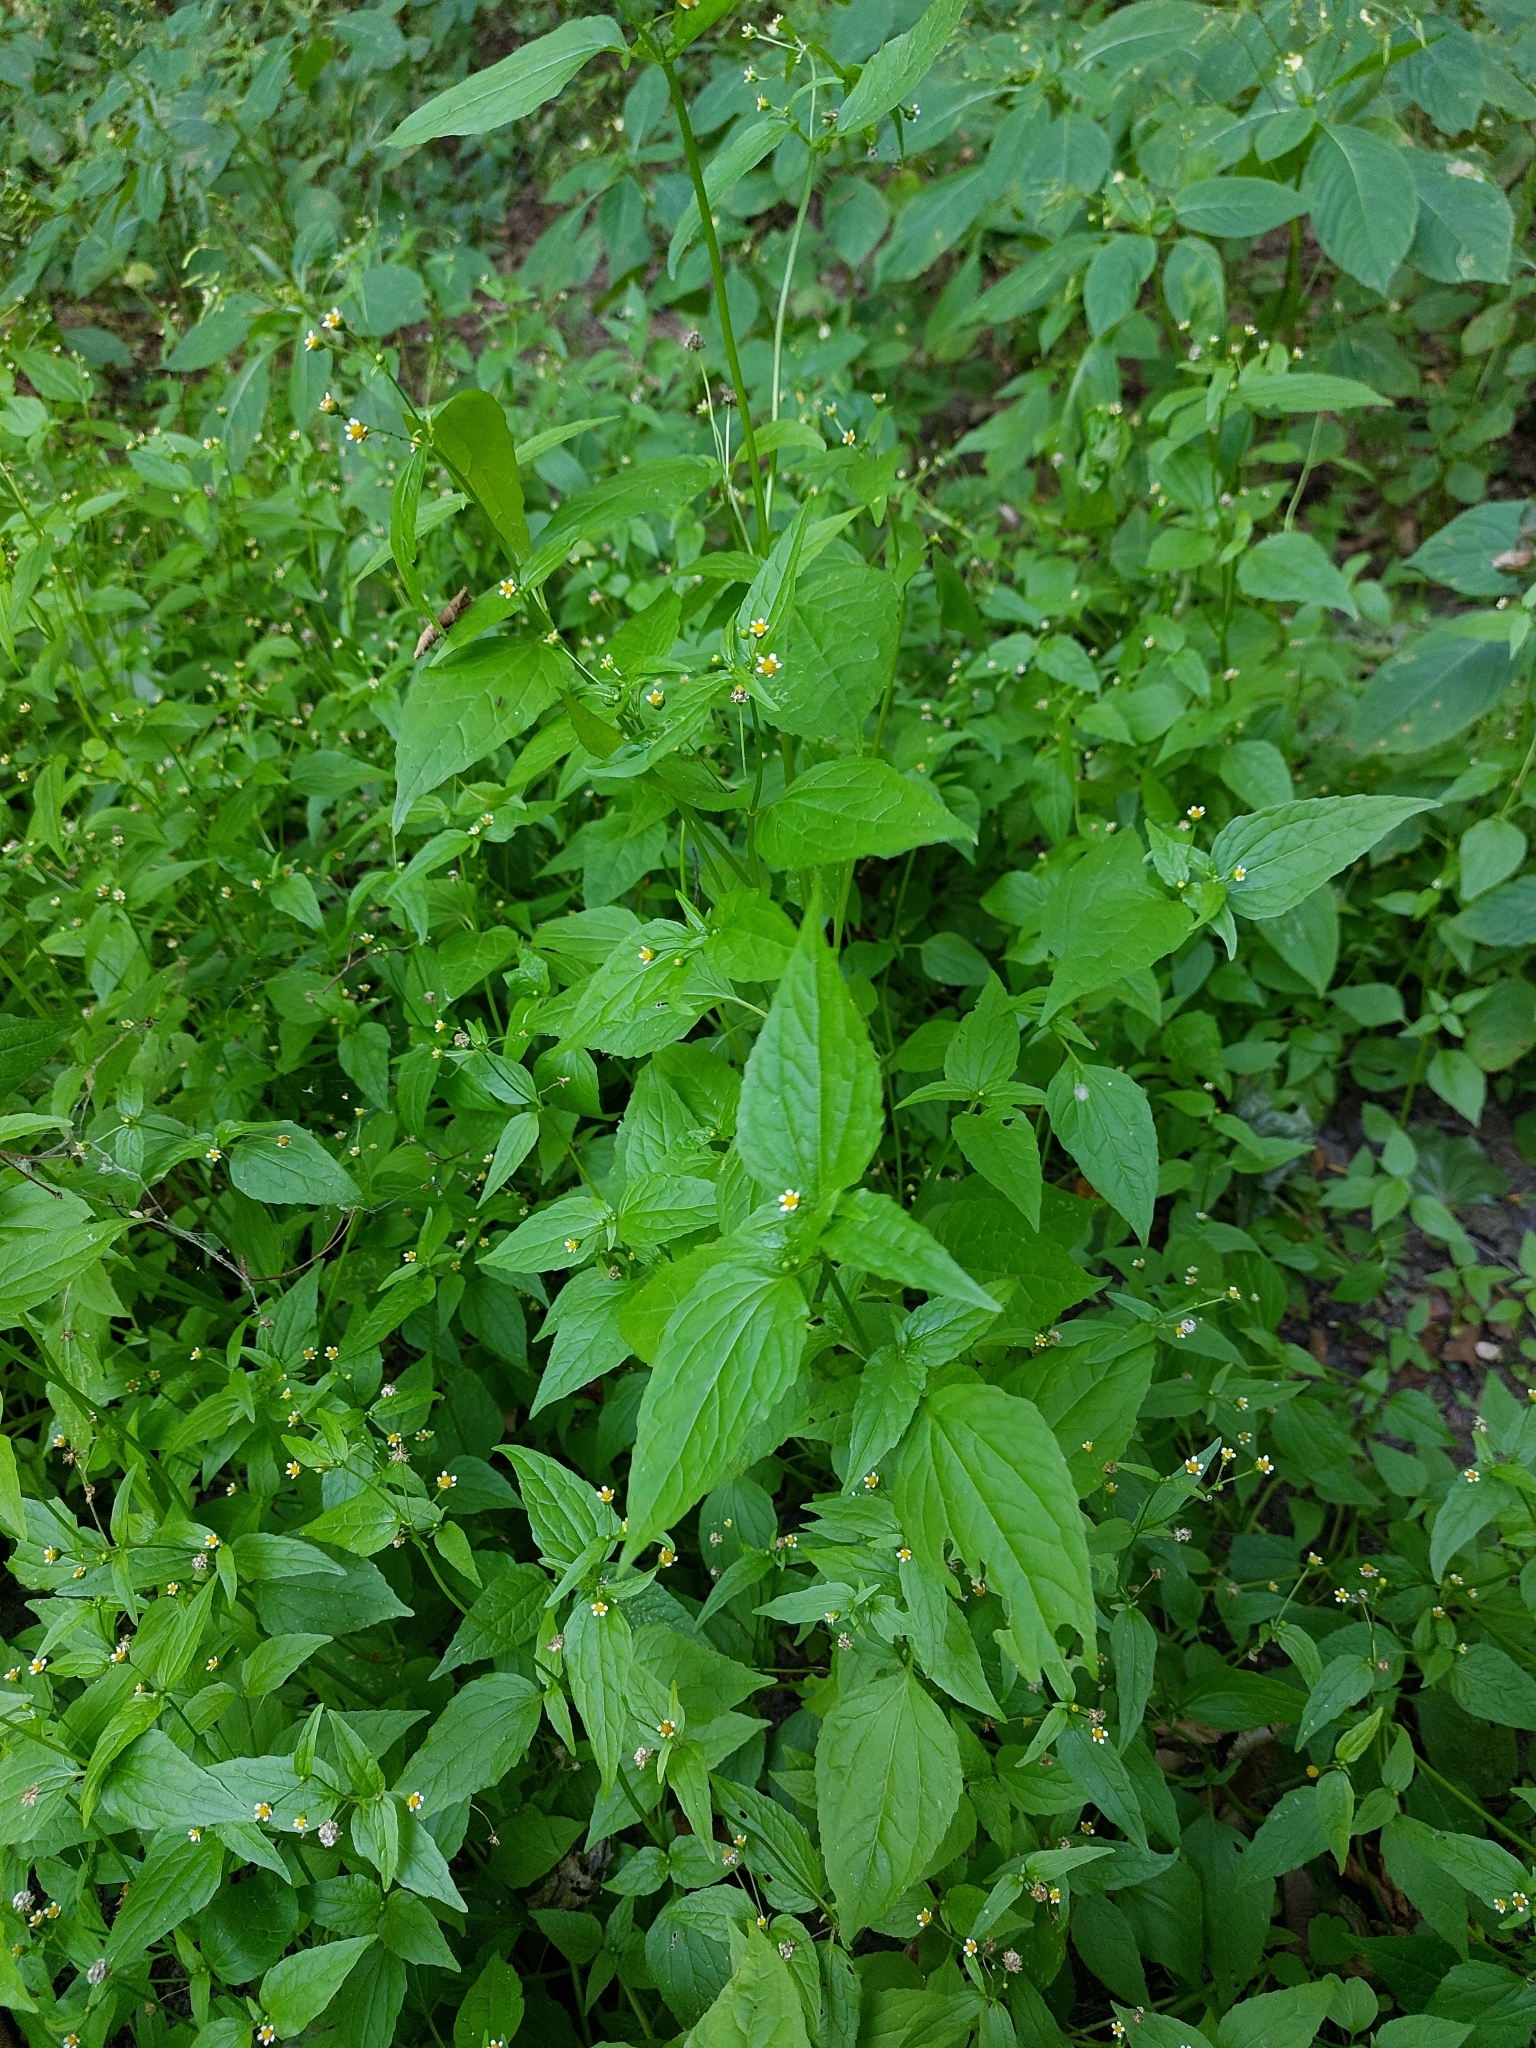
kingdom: Plantae
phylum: Tracheophyta
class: Magnoliopsida
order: Asterales
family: Asteraceae
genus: Galinsoga
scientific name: Galinsoga parviflora
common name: Gallant soldier
